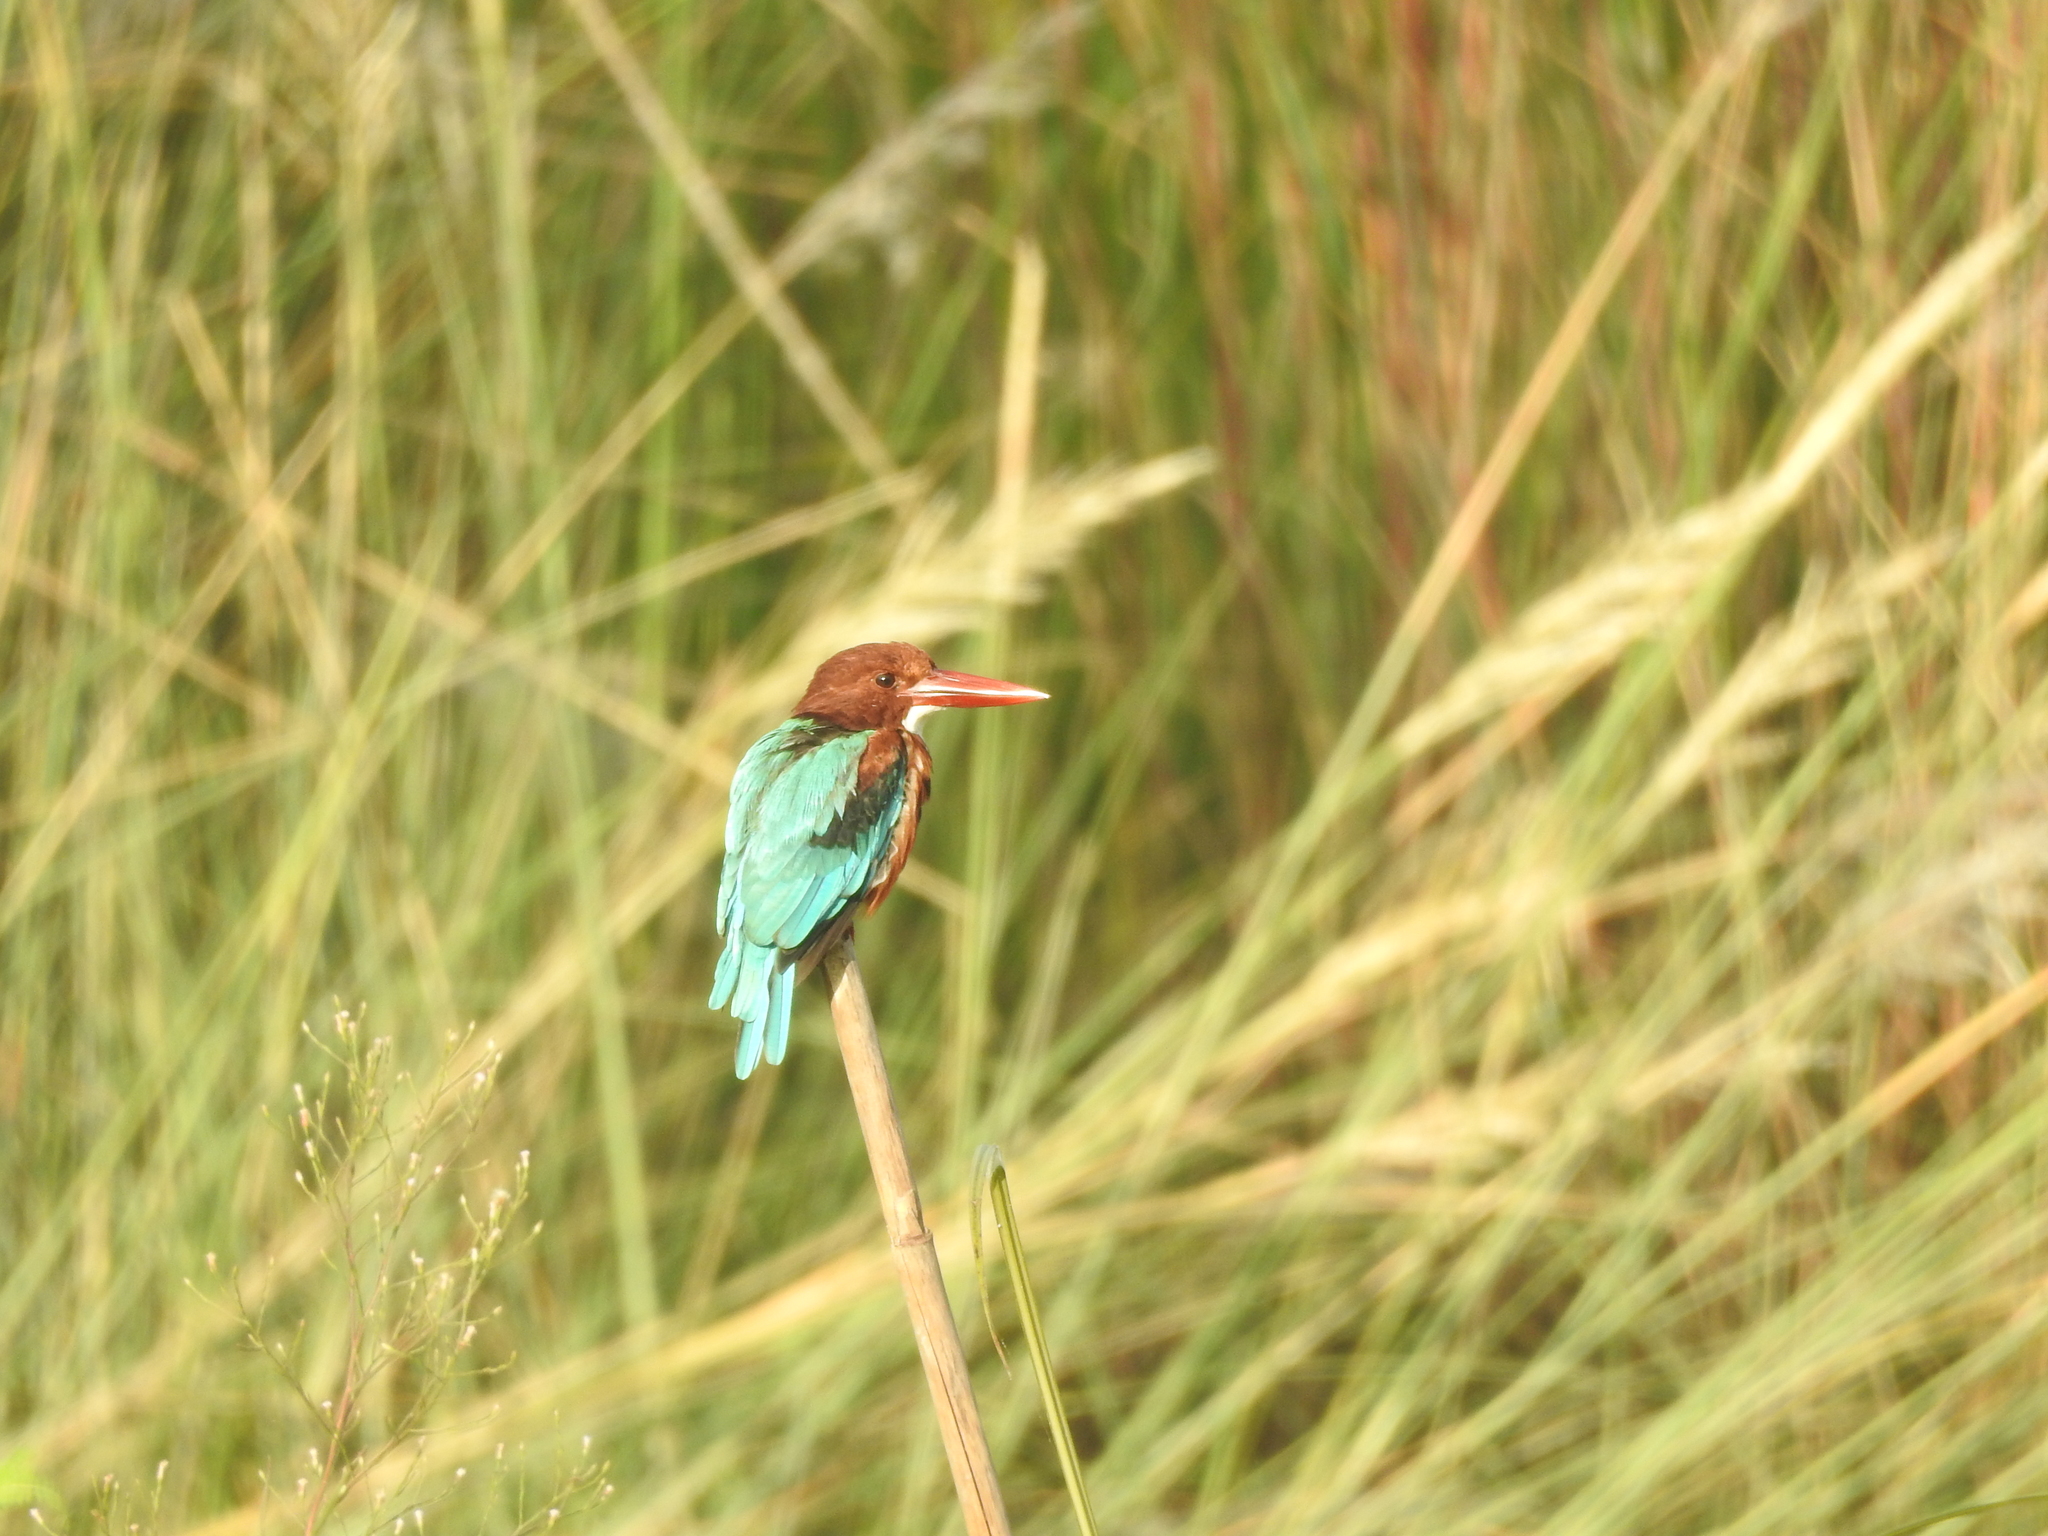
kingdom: Animalia
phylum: Chordata
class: Aves
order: Coraciiformes
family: Alcedinidae
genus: Halcyon
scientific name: Halcyon smyrnensis
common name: White-throated kingfisher
